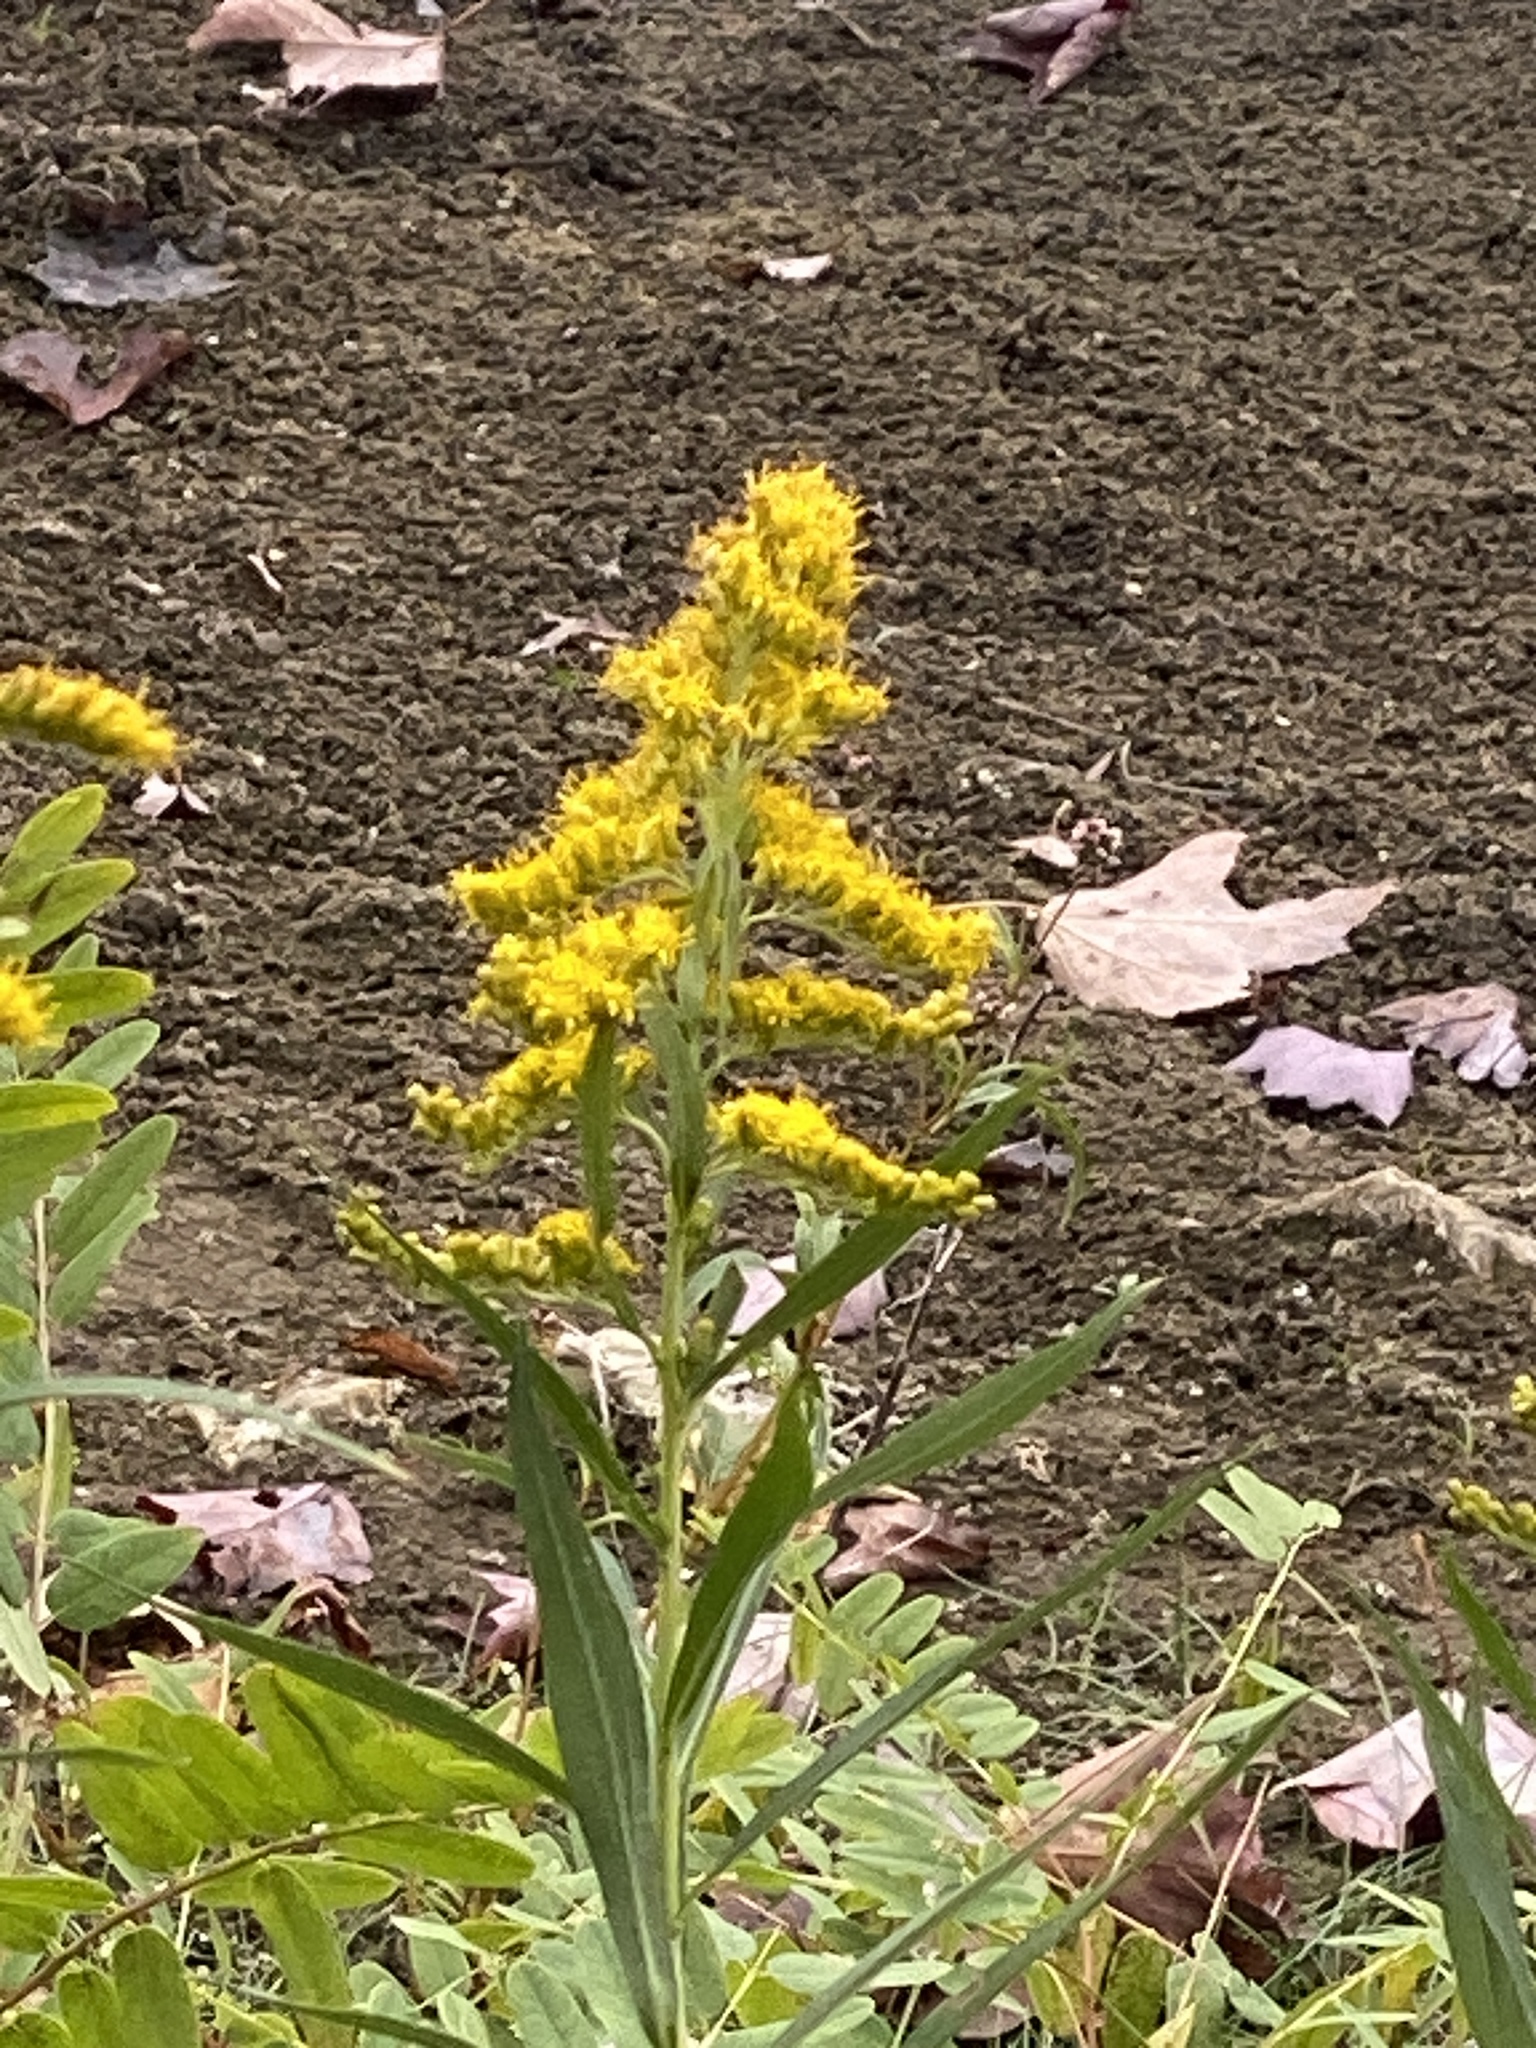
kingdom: Plantae
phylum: Tracheophyta
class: Magnoliopsida
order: Asterales
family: Asteraceae
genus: Solidago
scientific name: Solidago altissima
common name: Late goldenrod
